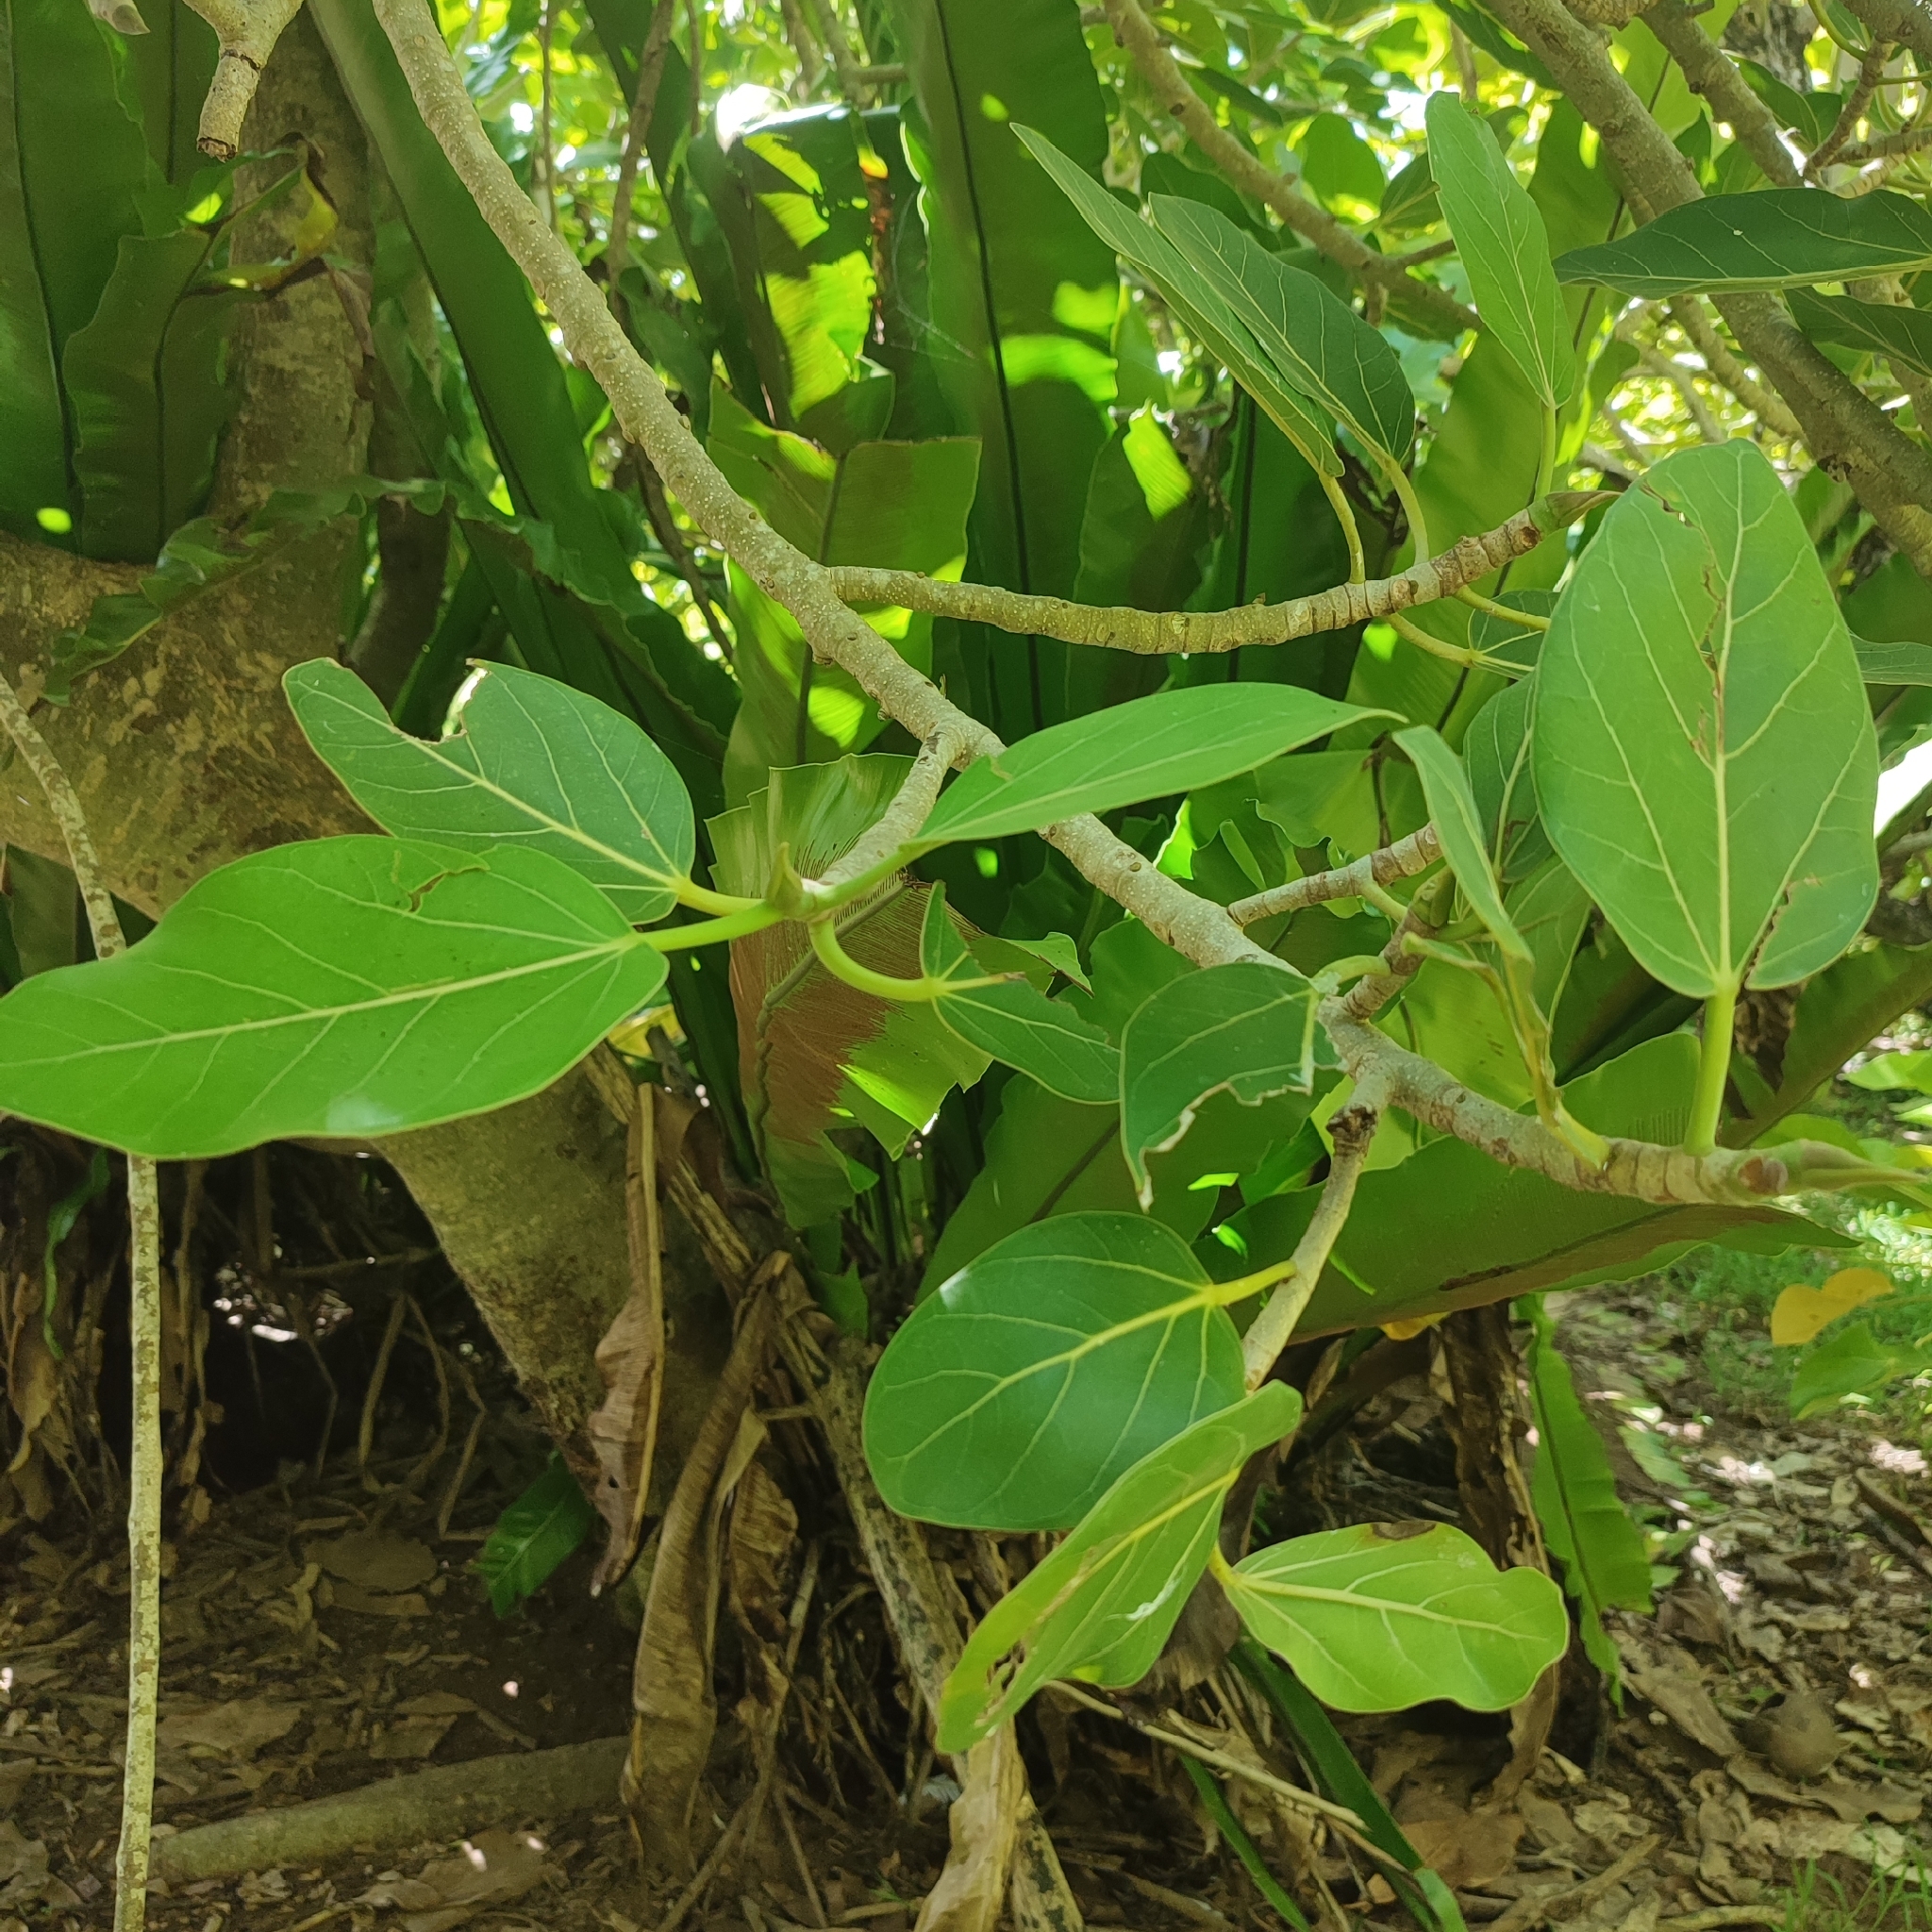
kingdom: Plantae
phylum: Tracheophyta
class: Magnoliopsida
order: Rosales
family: Moraceae
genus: Ficus
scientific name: Ficus benghalensis
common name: Indian banyan
